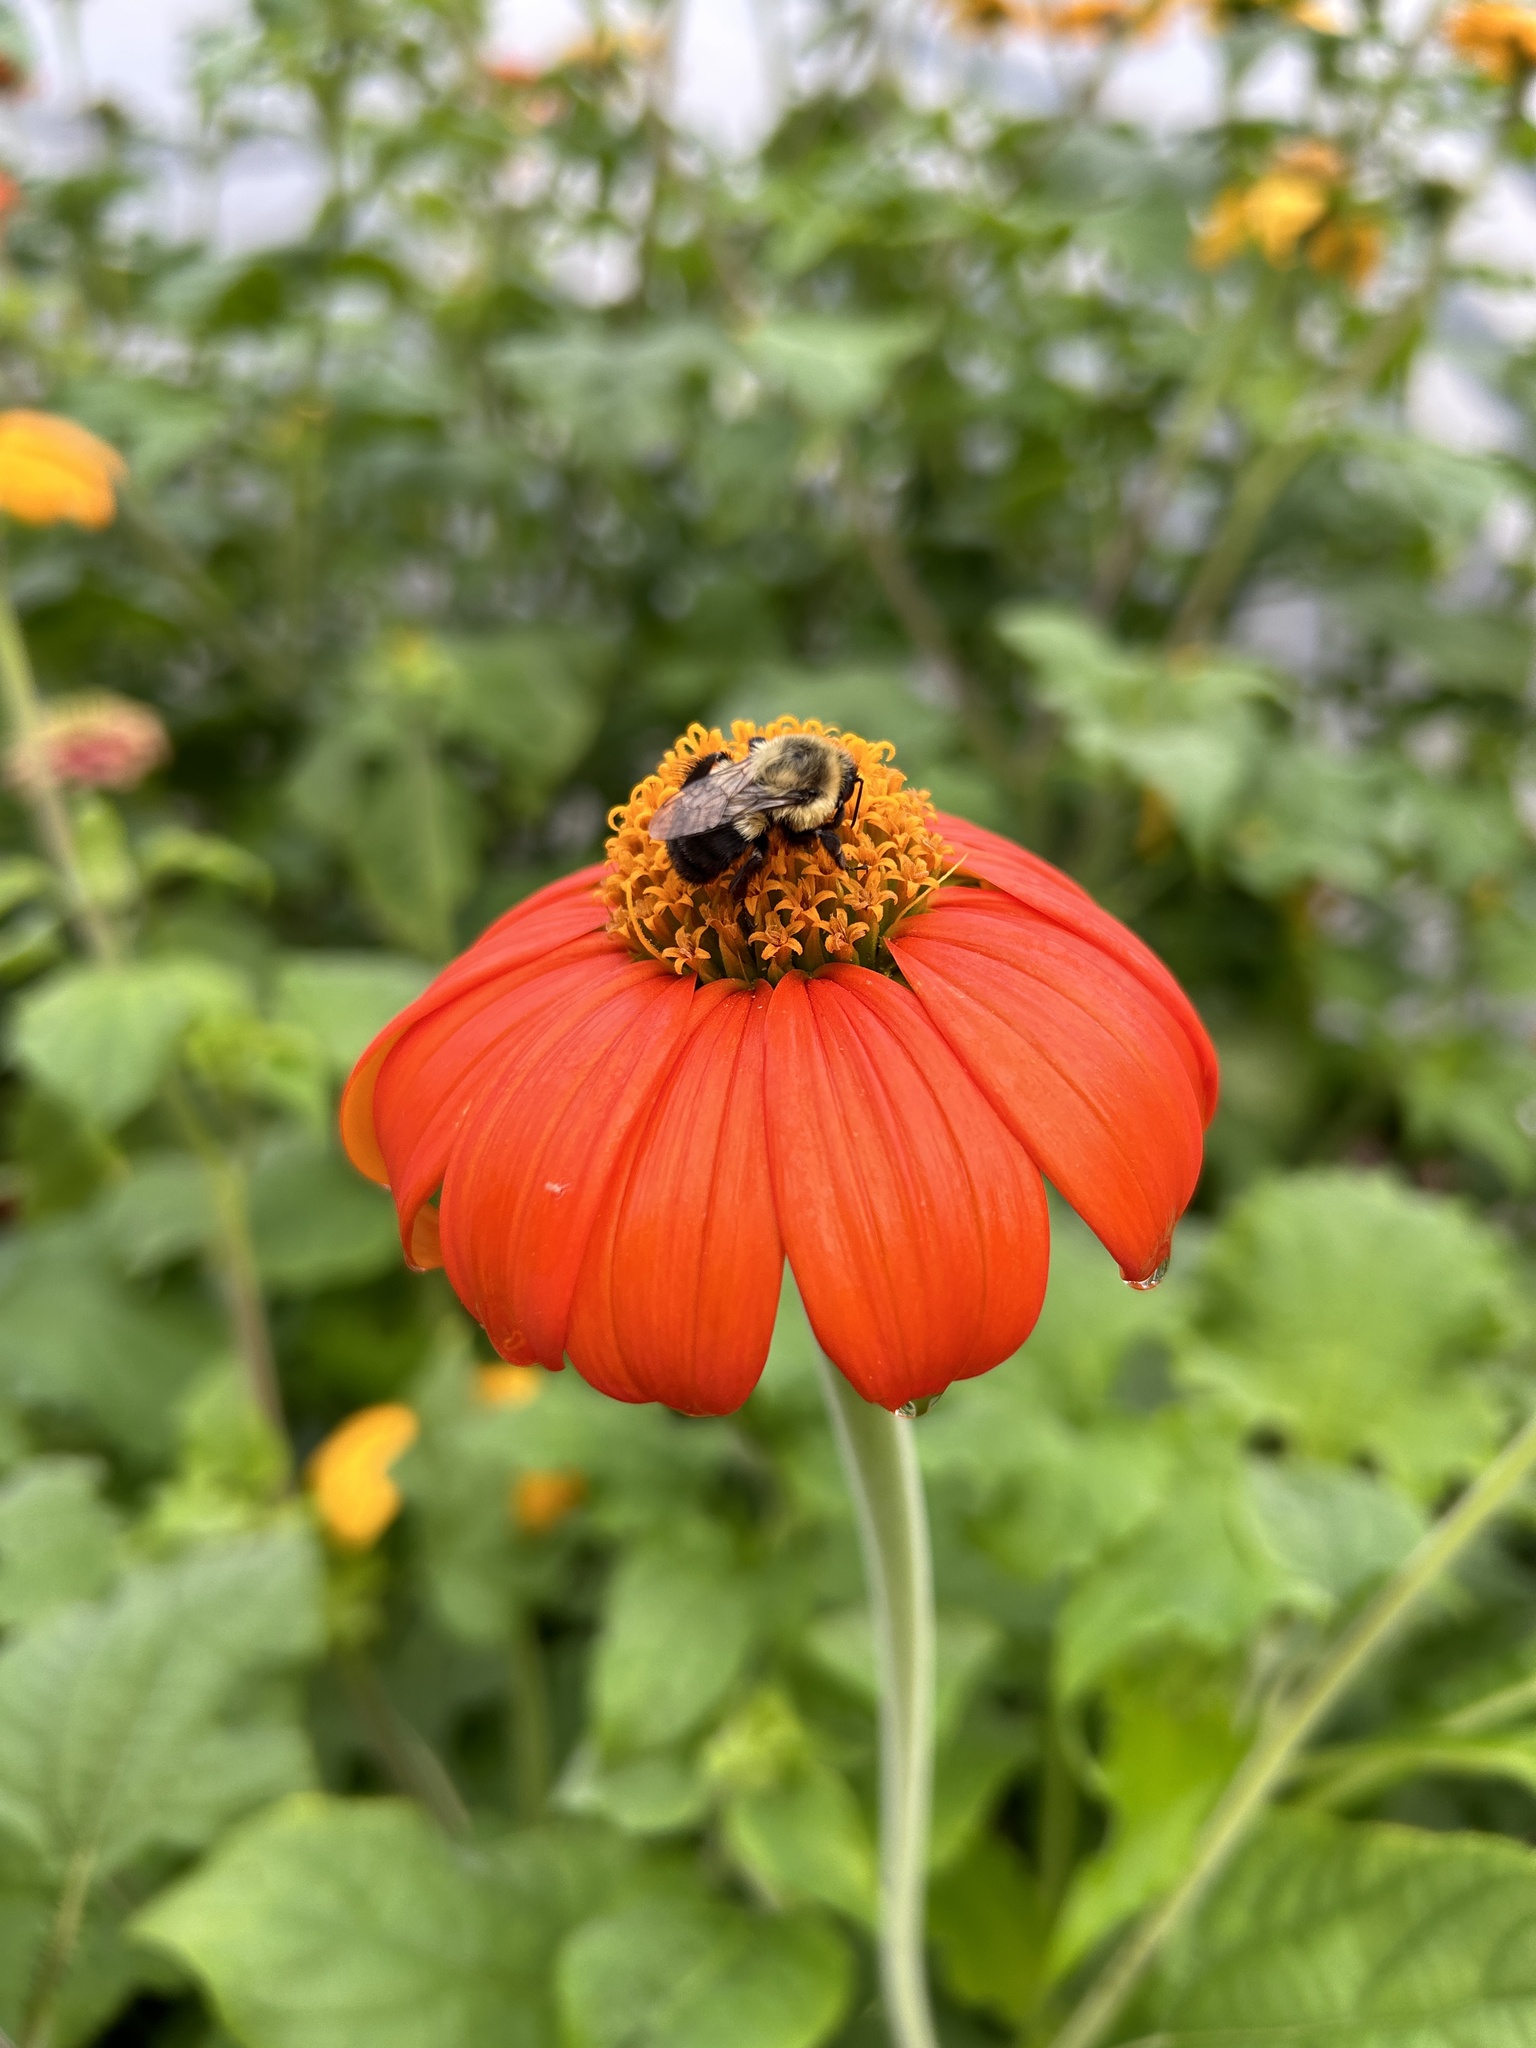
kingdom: Animalia
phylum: Arthropoda
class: Insecta
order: Hymenoptera
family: Apidae
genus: Bombus
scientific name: Bombus impatiens
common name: Common eastern bumble bee
